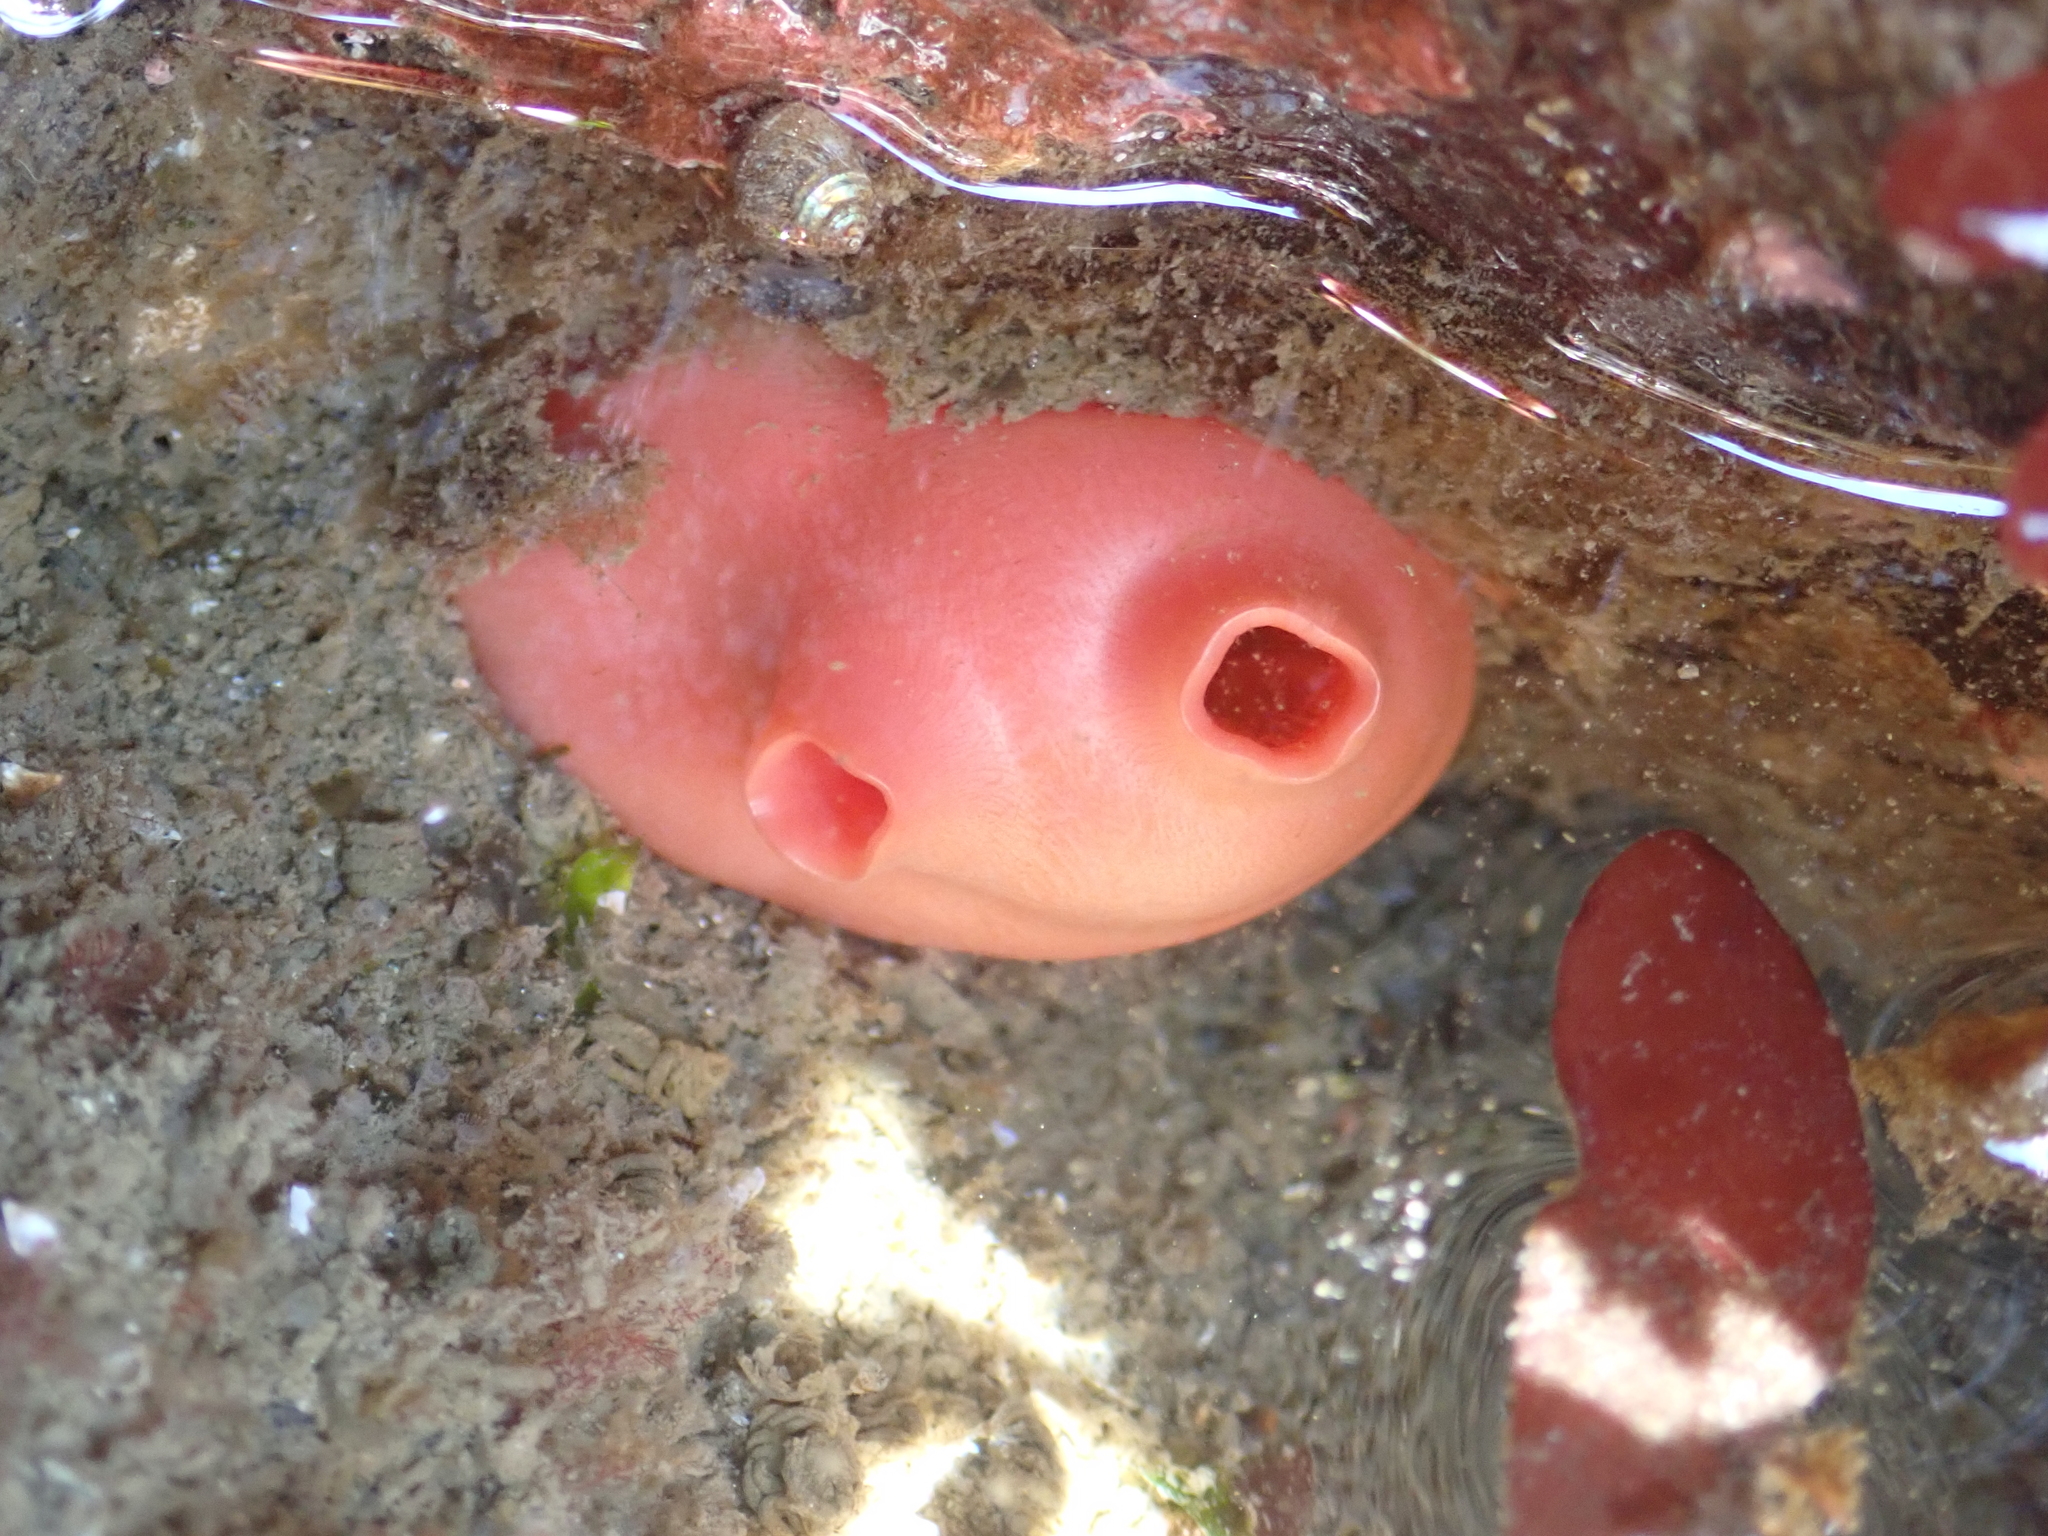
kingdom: Animalia
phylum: Chordata
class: Ascidiacea
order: Stolidobranchia
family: Styelidae
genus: Cnemidocarpa
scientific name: Cnemidocarpa finmarkiensis
